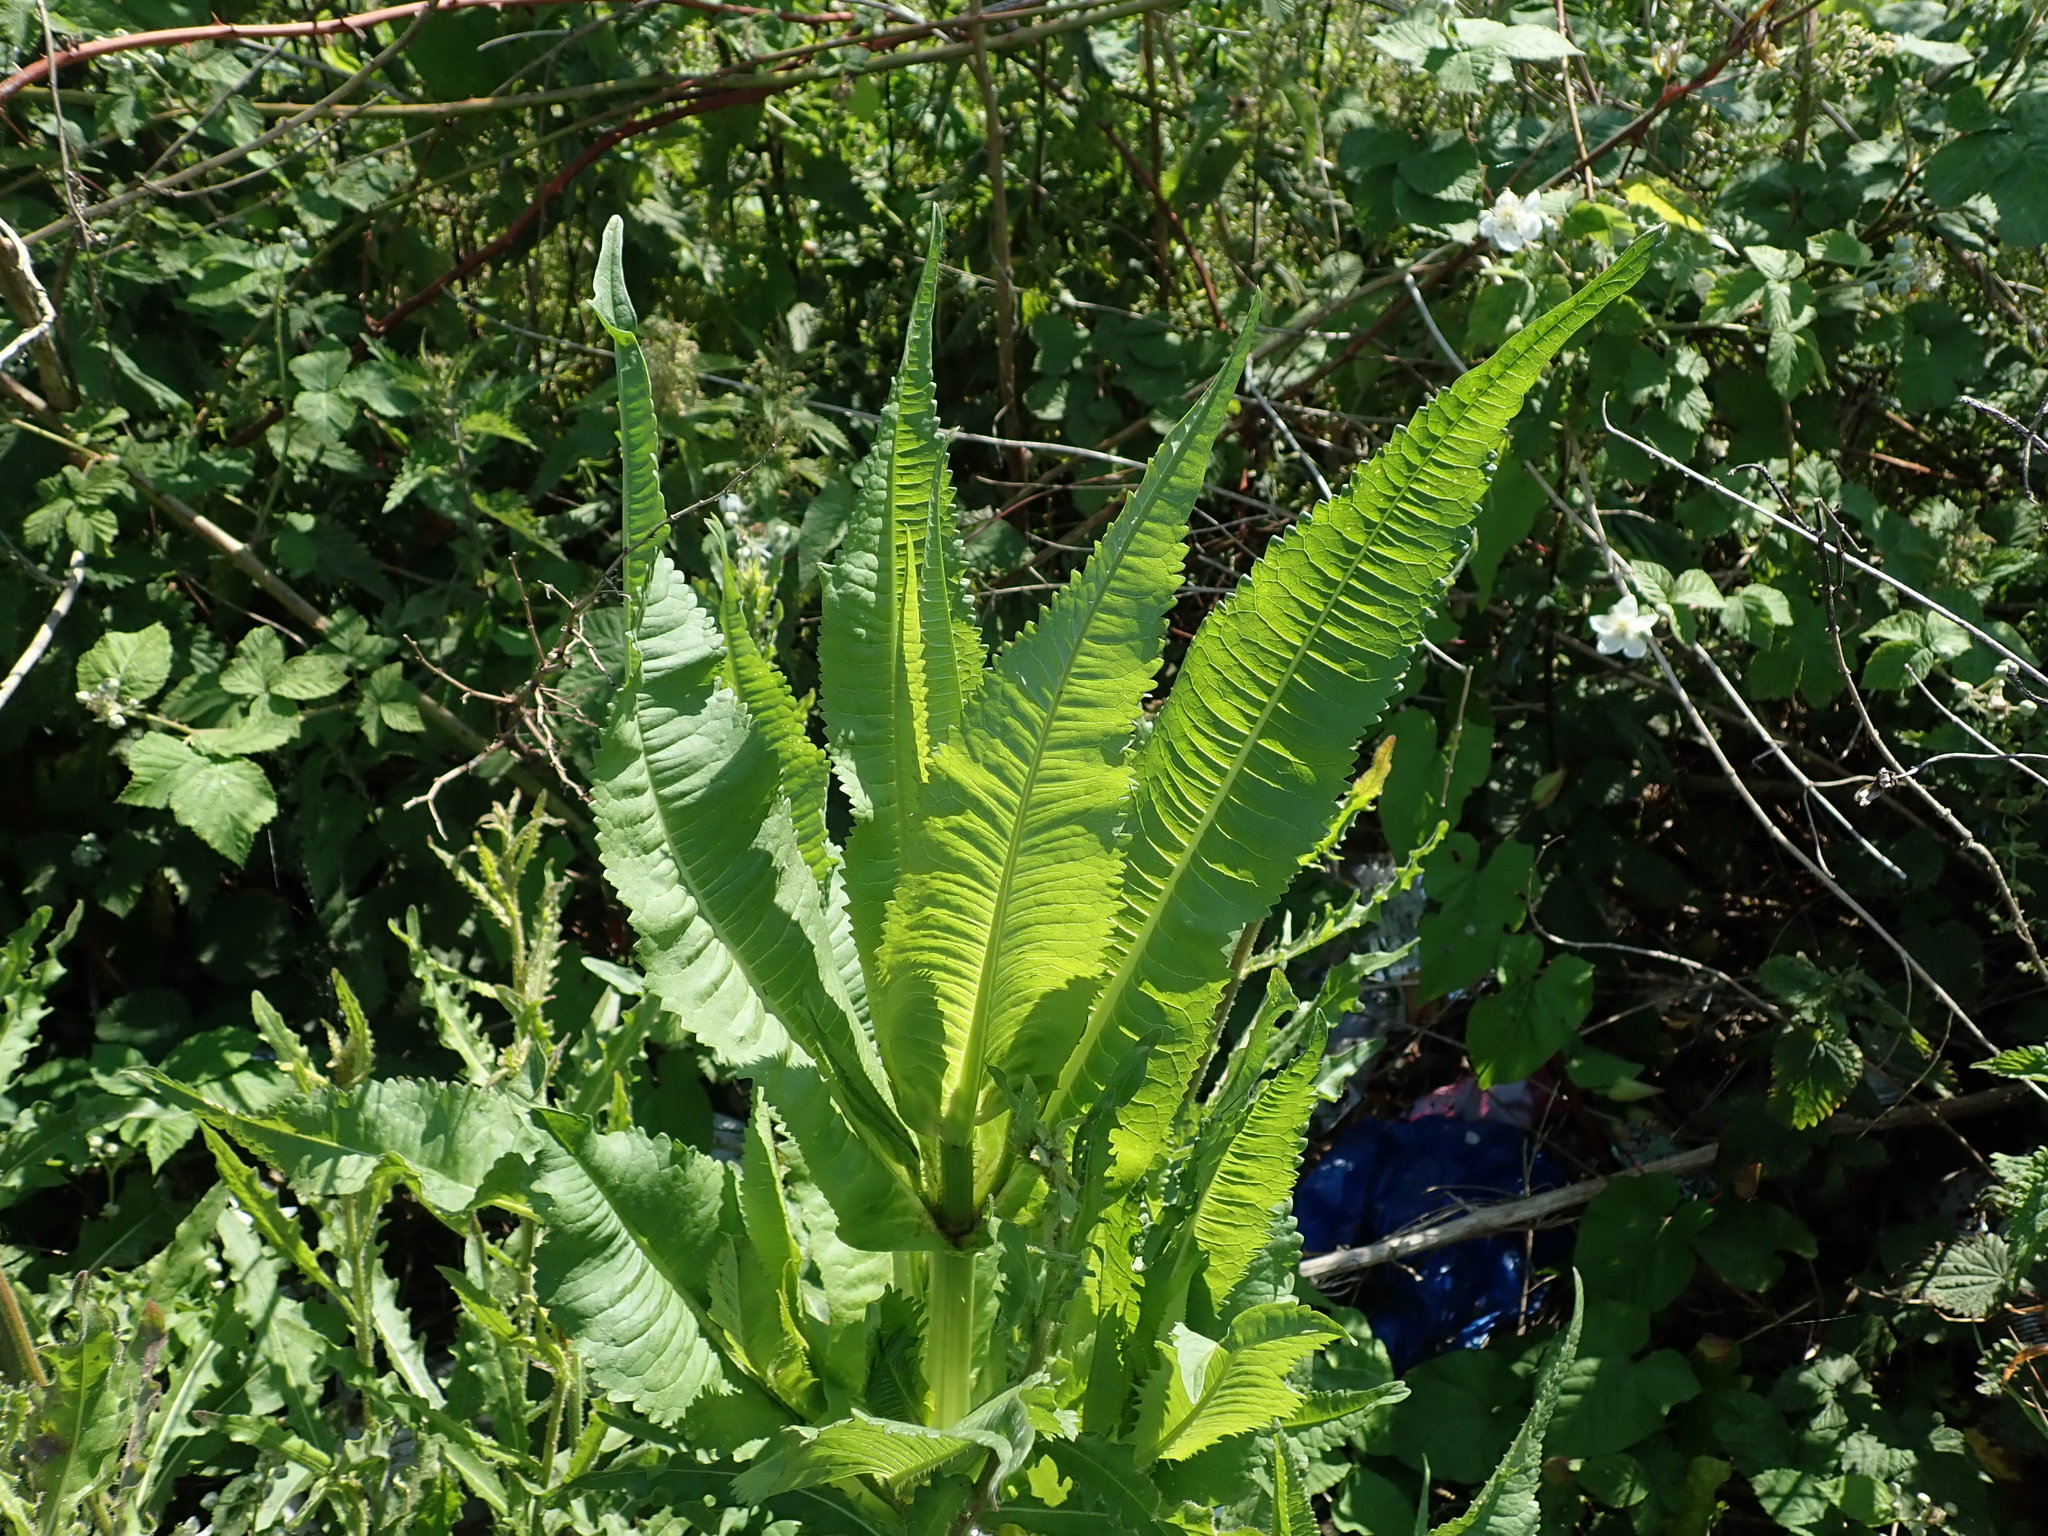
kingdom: Plantae
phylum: Tracheophyta
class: Magnoliopsida
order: Dipsacales
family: Caprifoliaceae
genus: Dipsacus
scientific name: Dipsacus fullonum
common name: Teasel
